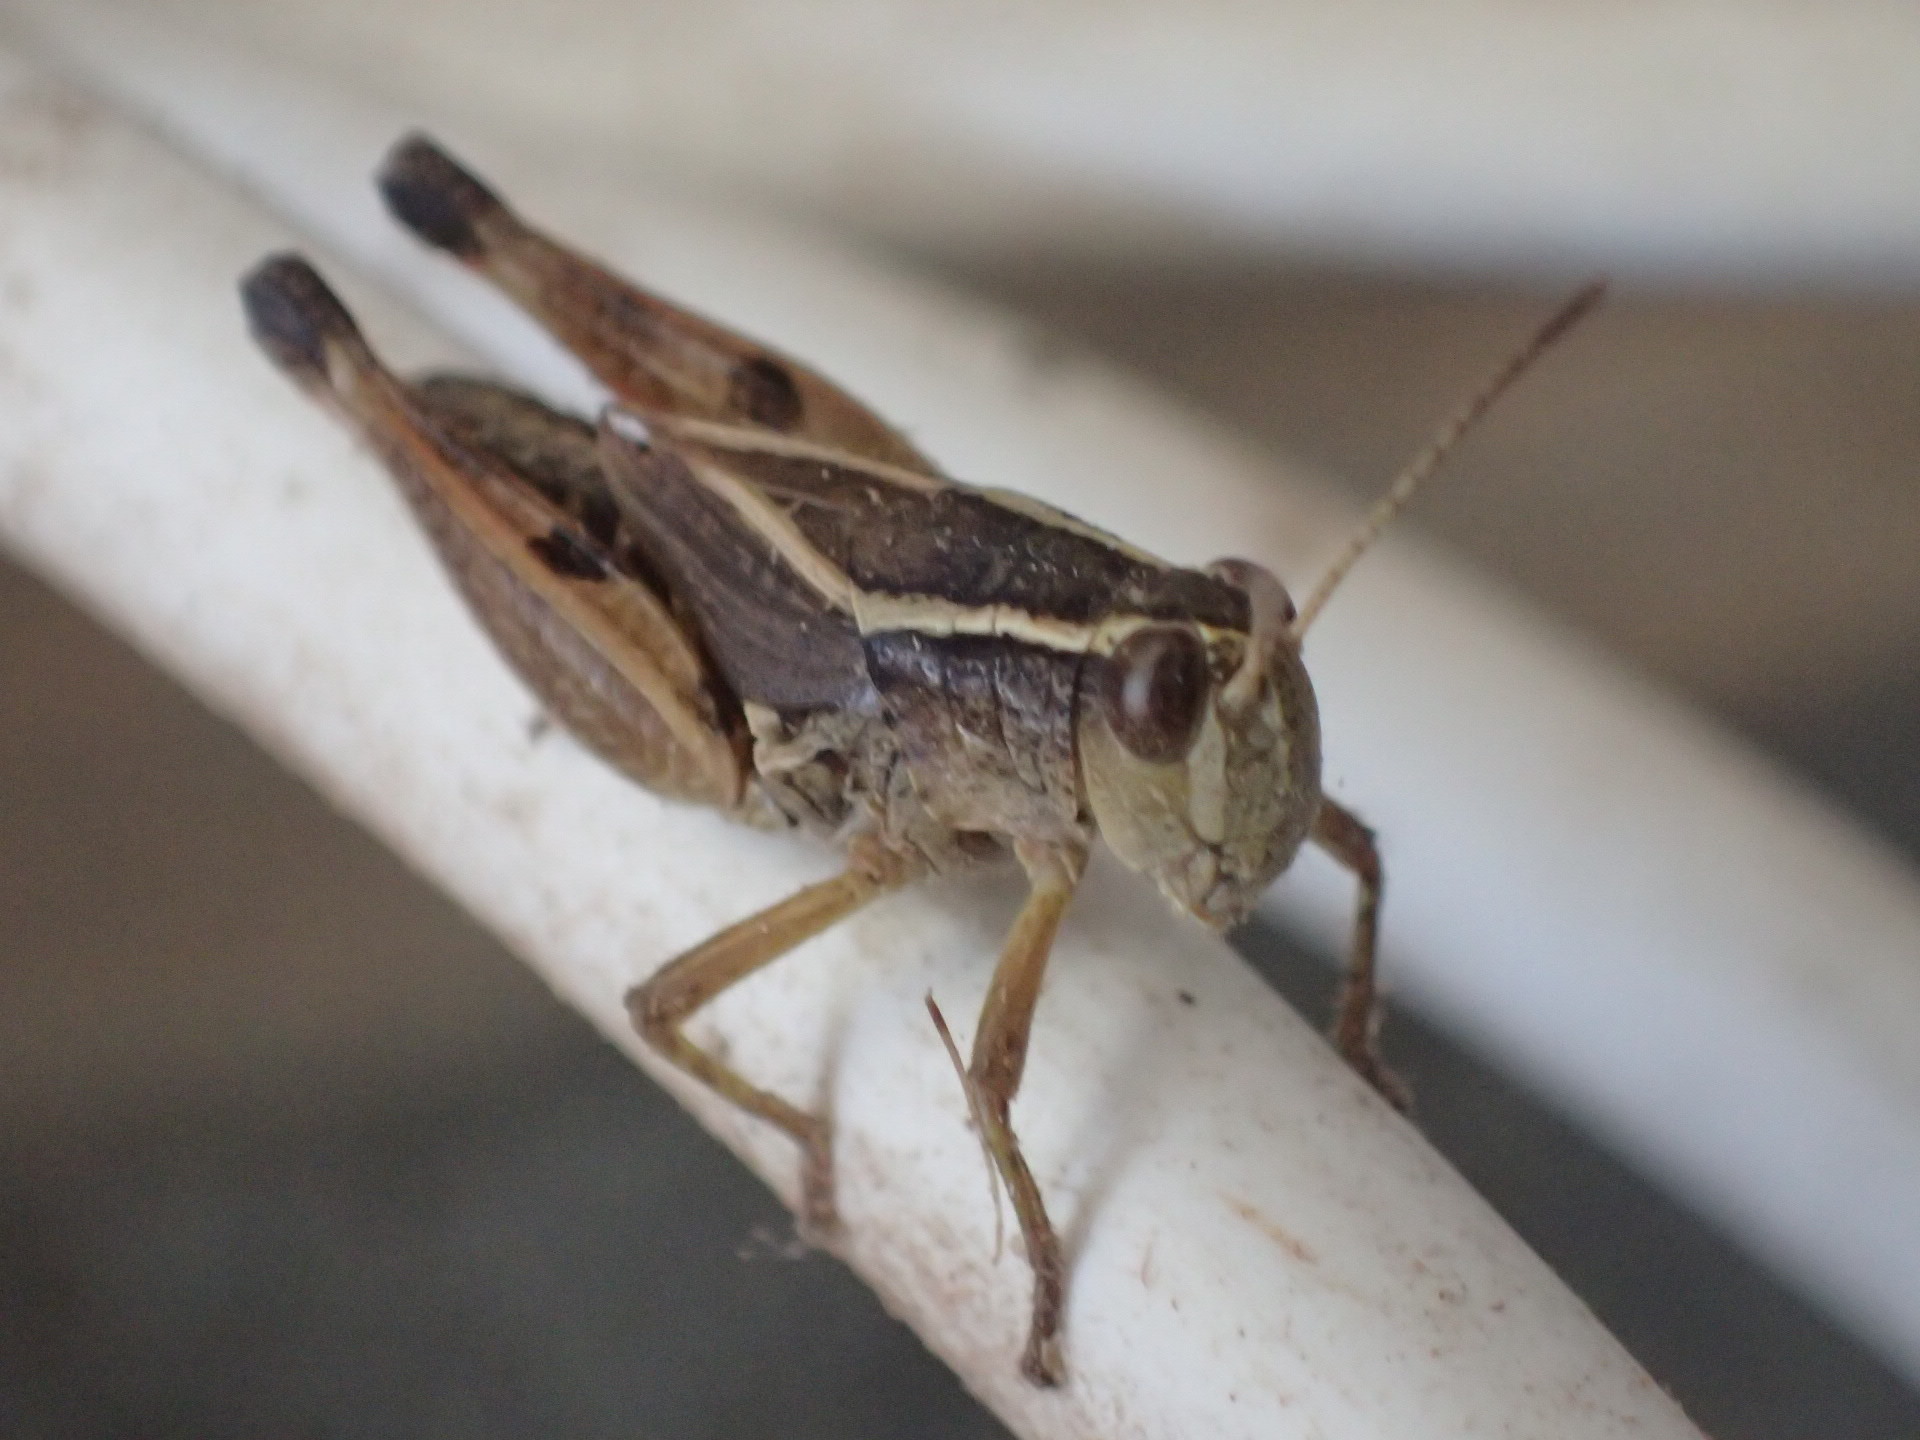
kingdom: Animalia
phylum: Arthropoda
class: Insecta
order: Orthoptera
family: Acrididae
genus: Phaulacridium
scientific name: Phaulacridium vittatum
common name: Wingless grasshopper
